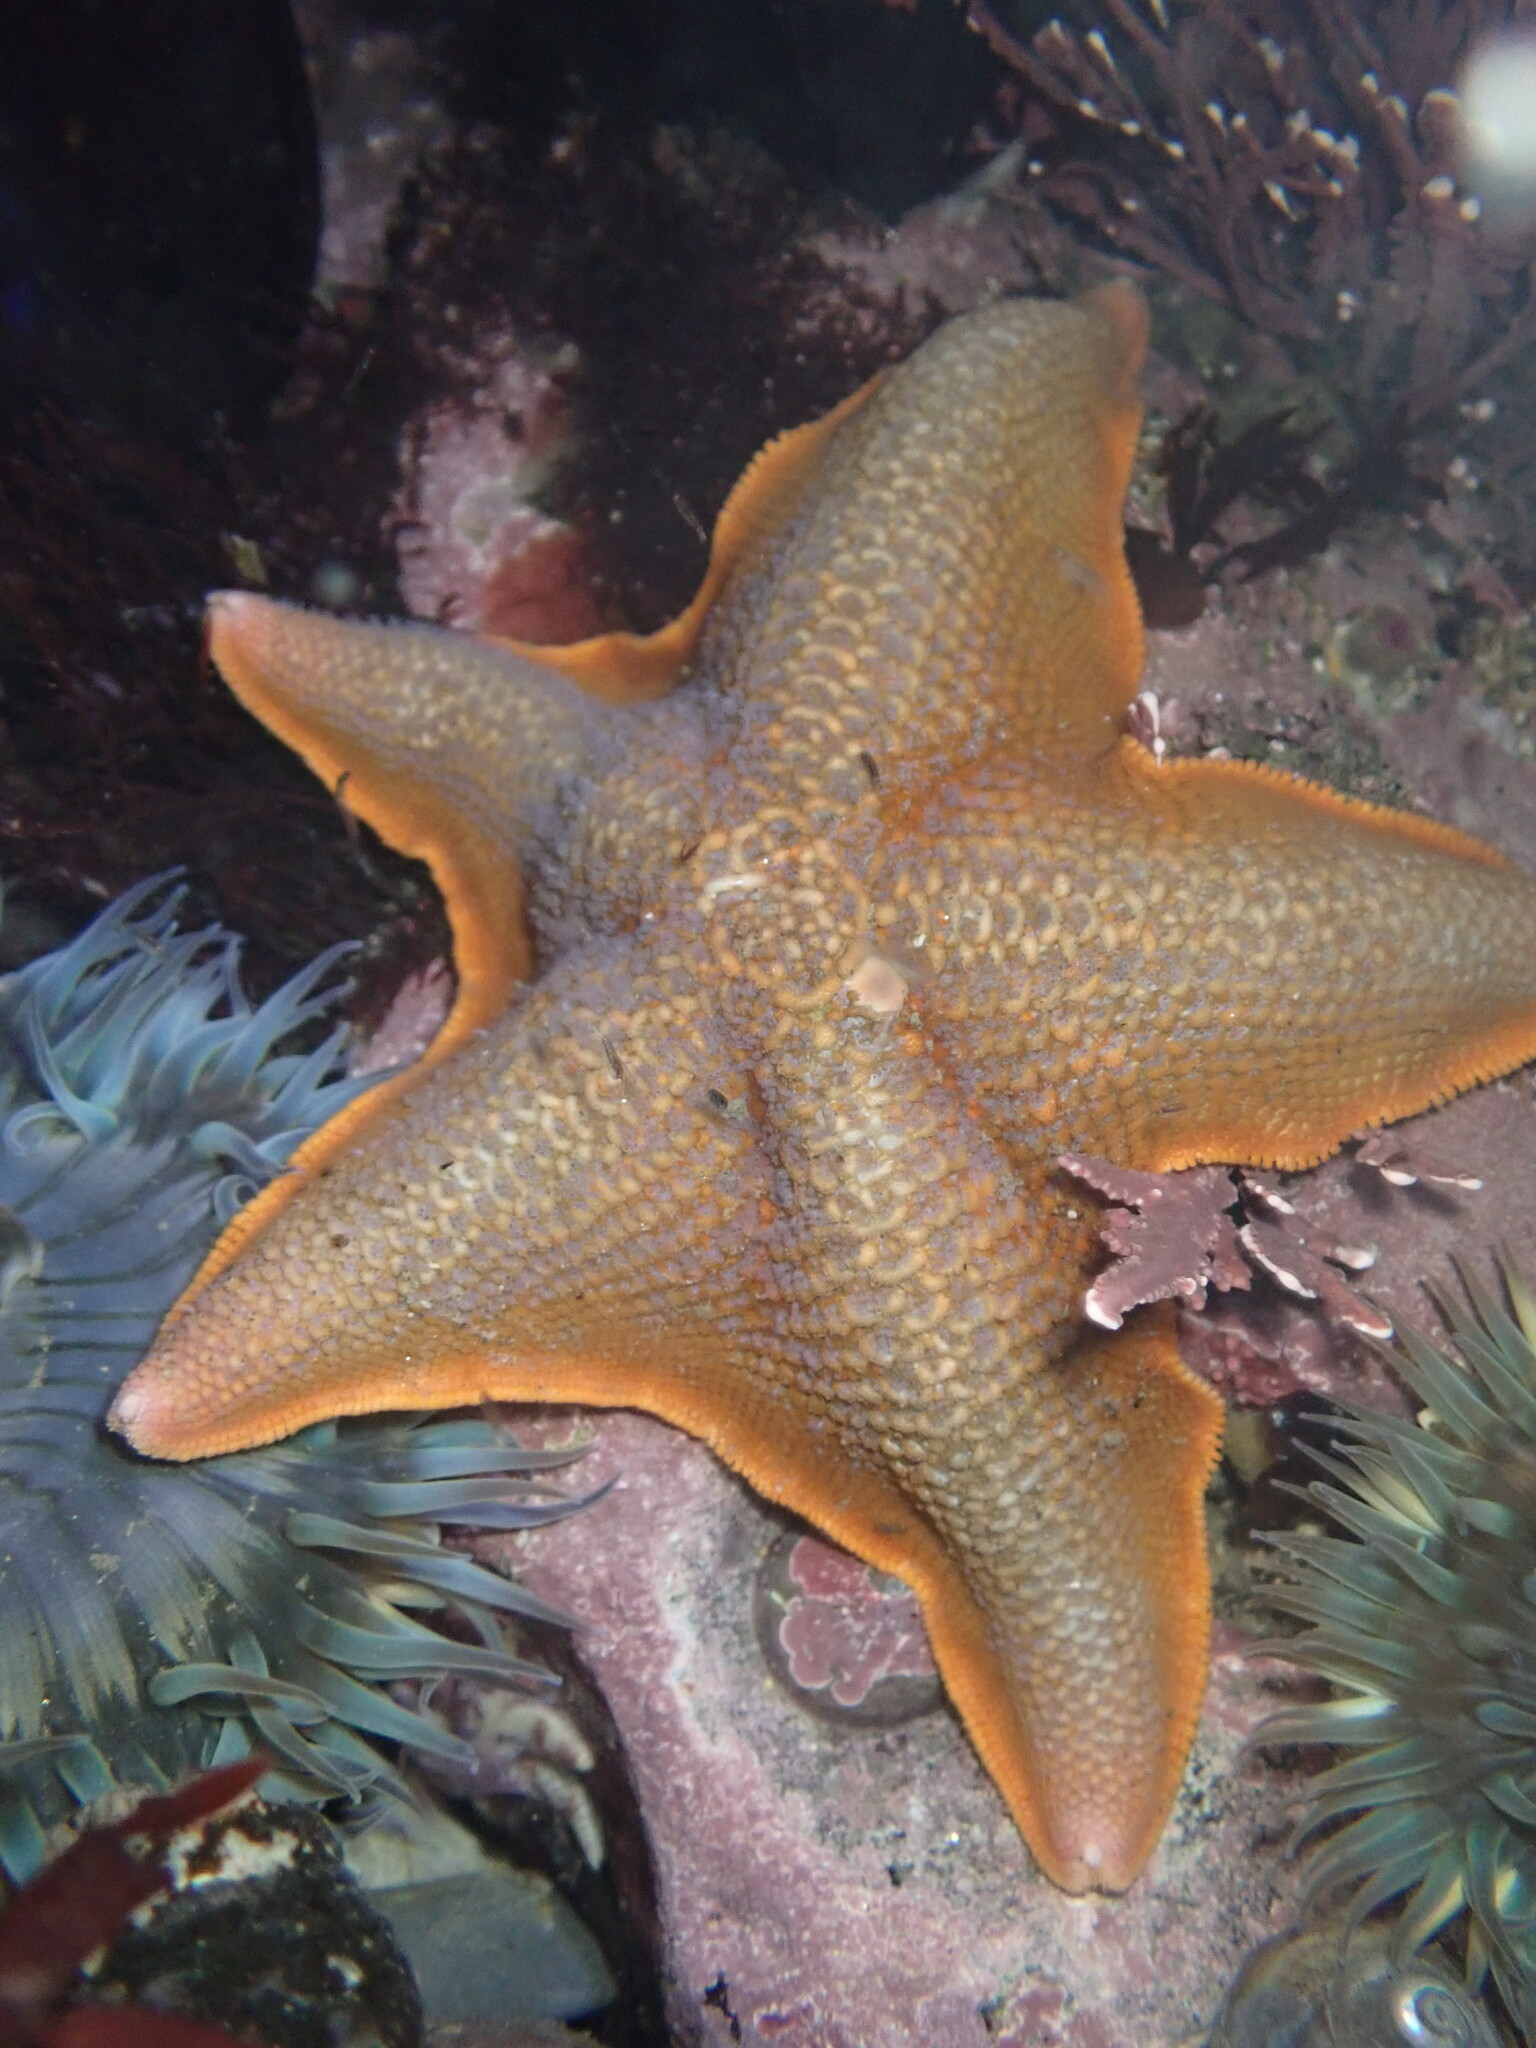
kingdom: Animalia
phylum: Echinodermata
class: Asteroidea
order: Valvatida
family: Asterinidae
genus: Patiria
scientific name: Patiria miniata
